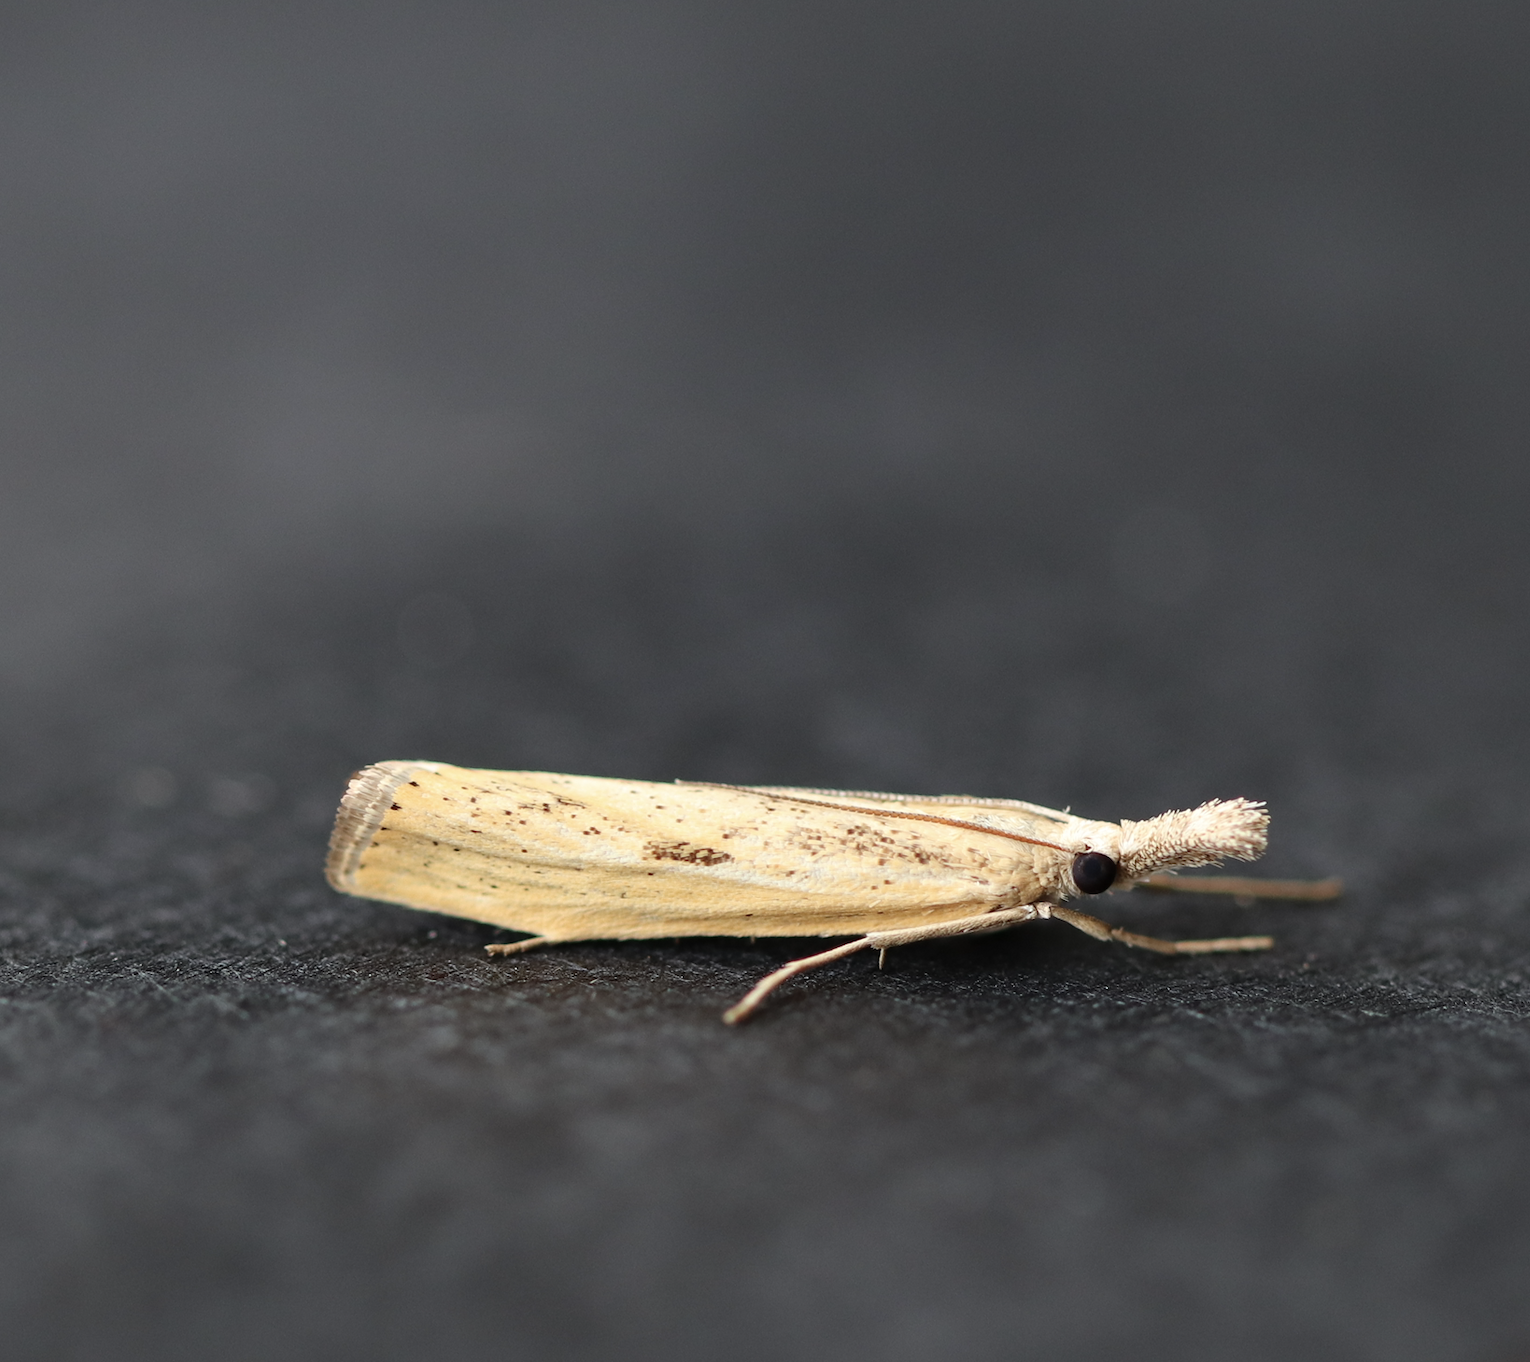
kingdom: Animalia
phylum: Arthropoda
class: Insecta
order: Lepidoptera
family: Crambidae
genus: Agriphila
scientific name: Agriphila inquinatella
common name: Barred grass-veneer
